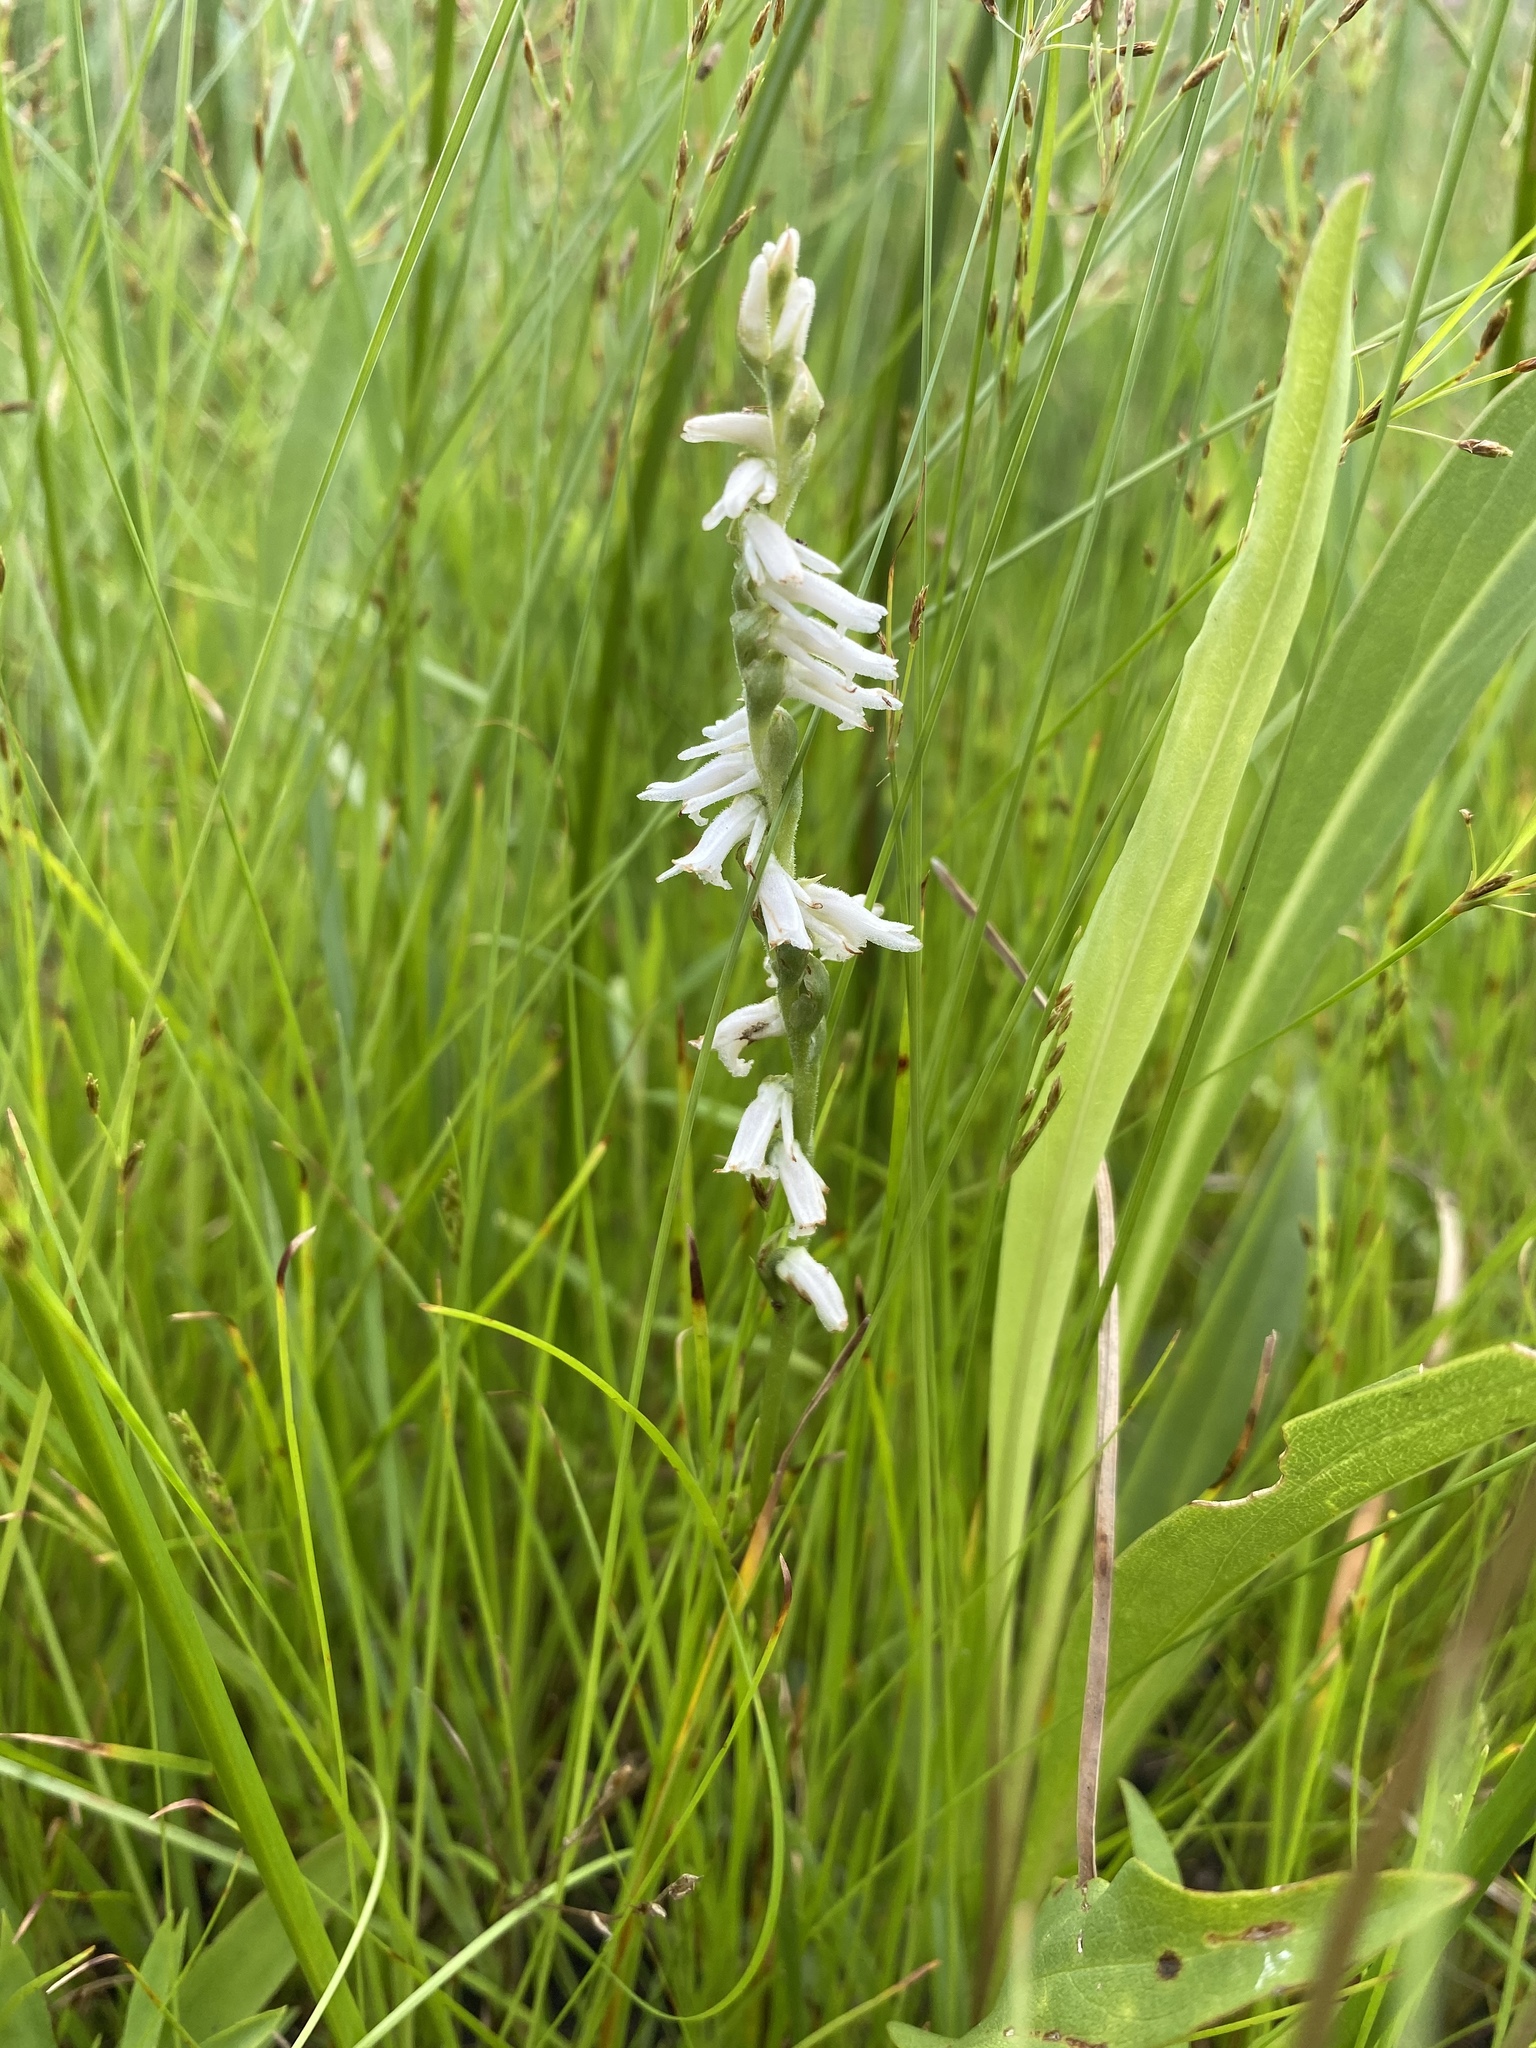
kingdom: Plantae
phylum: Tracheophyta
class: Liliopsida
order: Asparagales
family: Orchidaceae
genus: Spiranthes
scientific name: Spiranthes vernalis
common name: Spring ladies'-tresses
